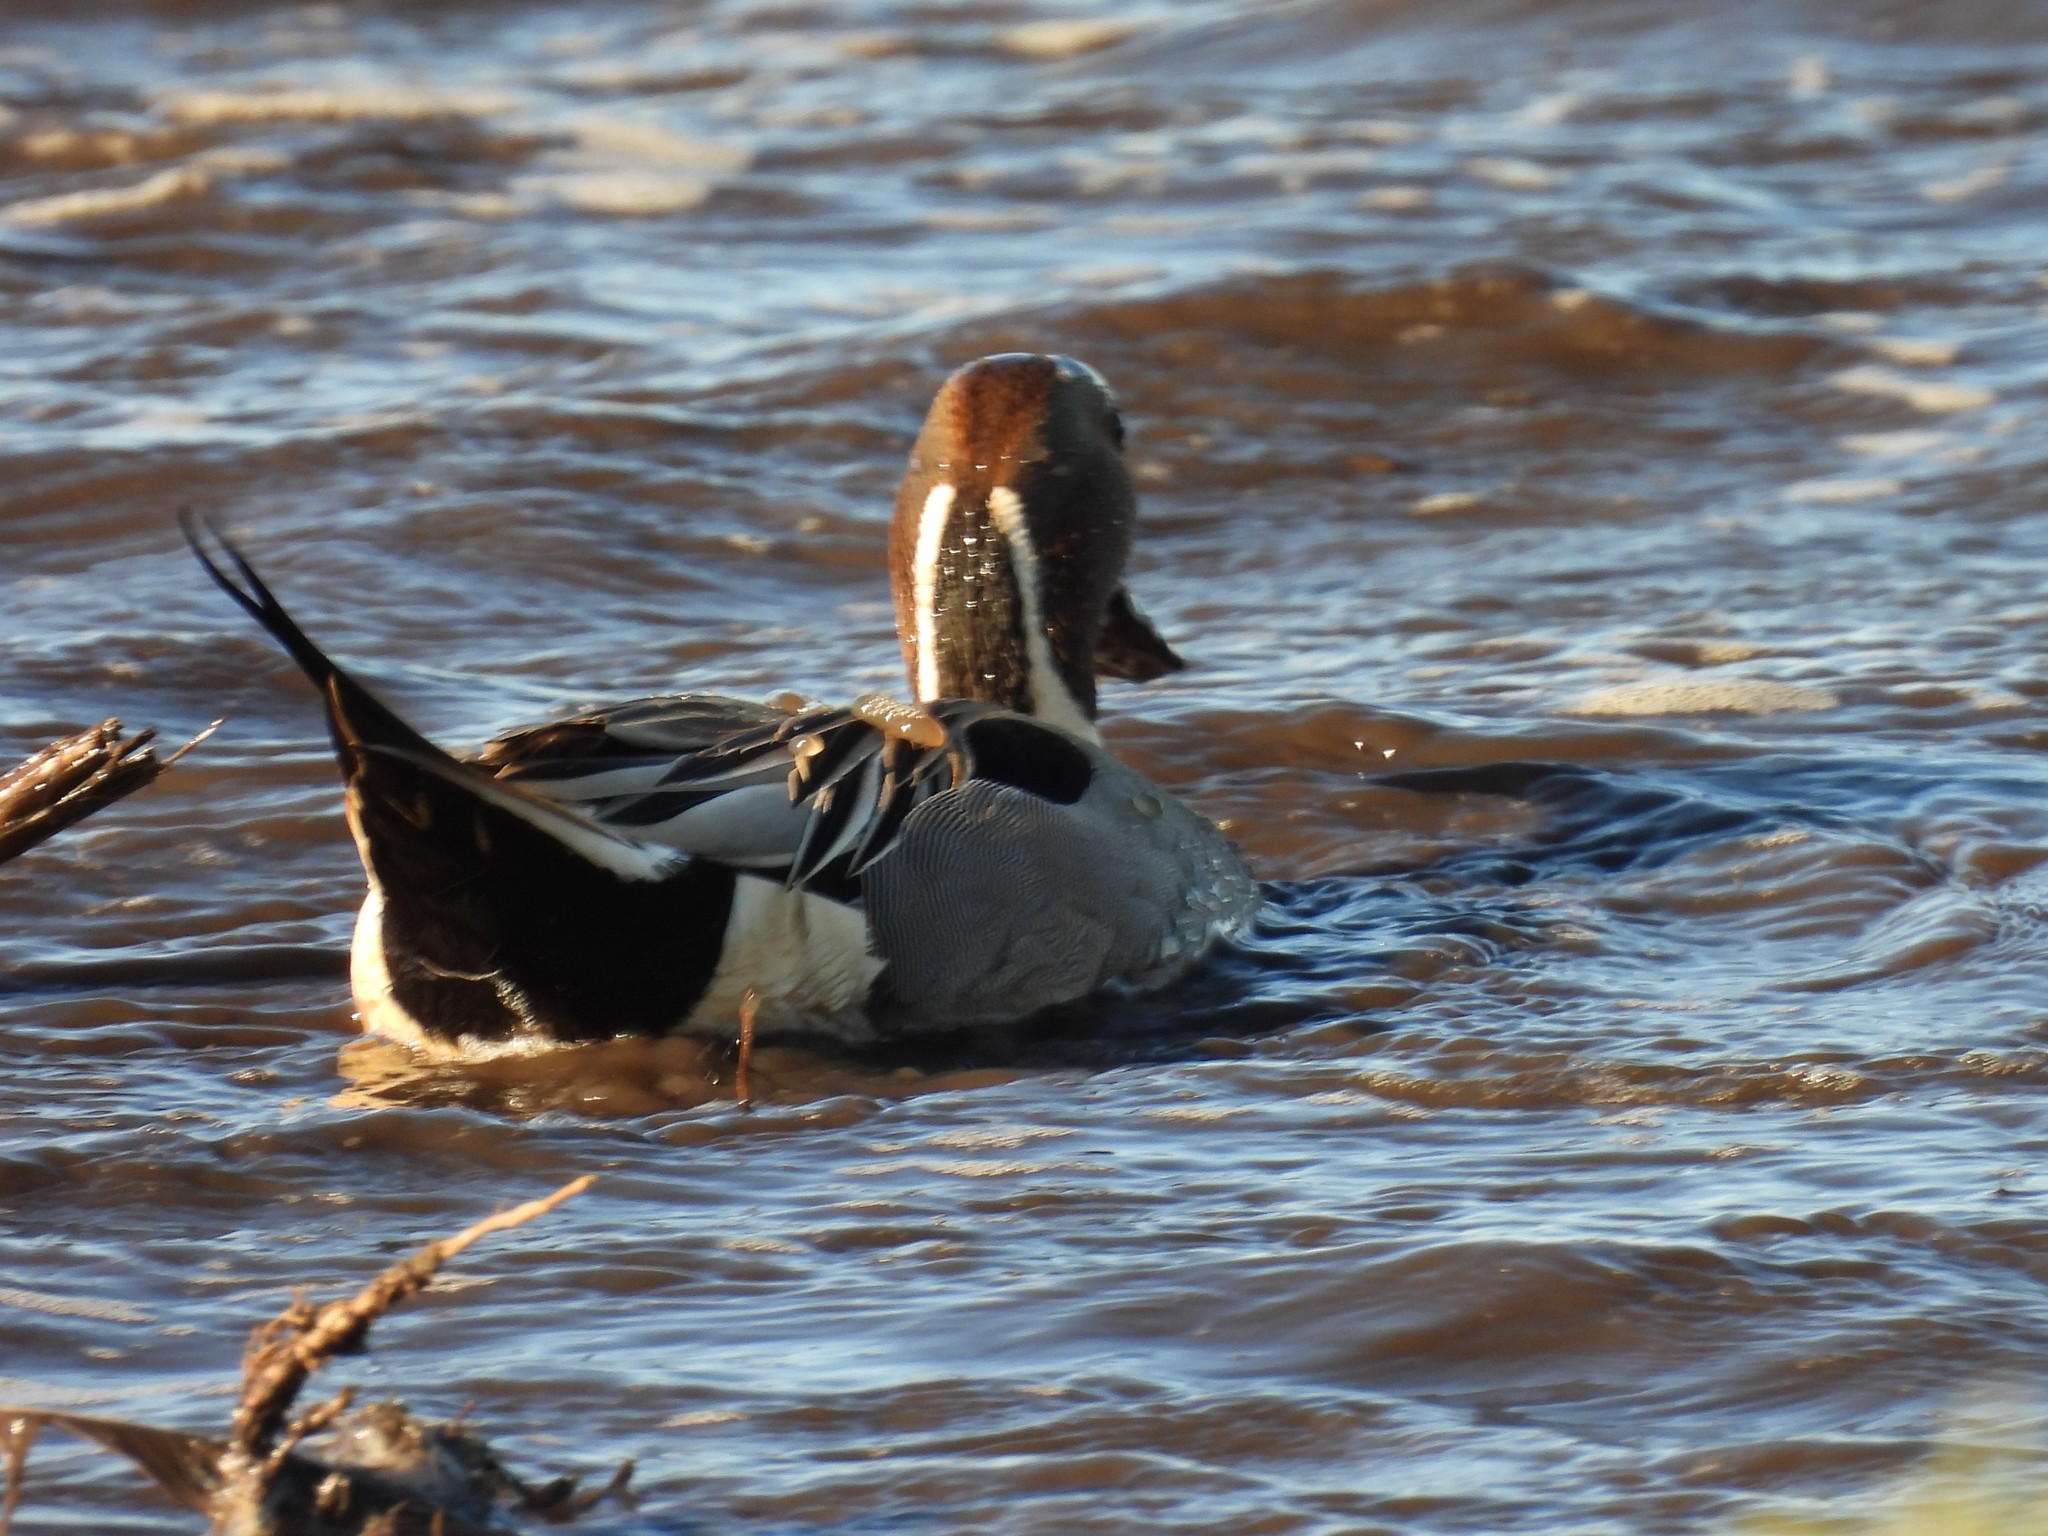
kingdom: Animalia
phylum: Chordata
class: Aves
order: Anseriformes
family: Anatidae
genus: Anas
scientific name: Anas acuta
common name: Northern pintail
